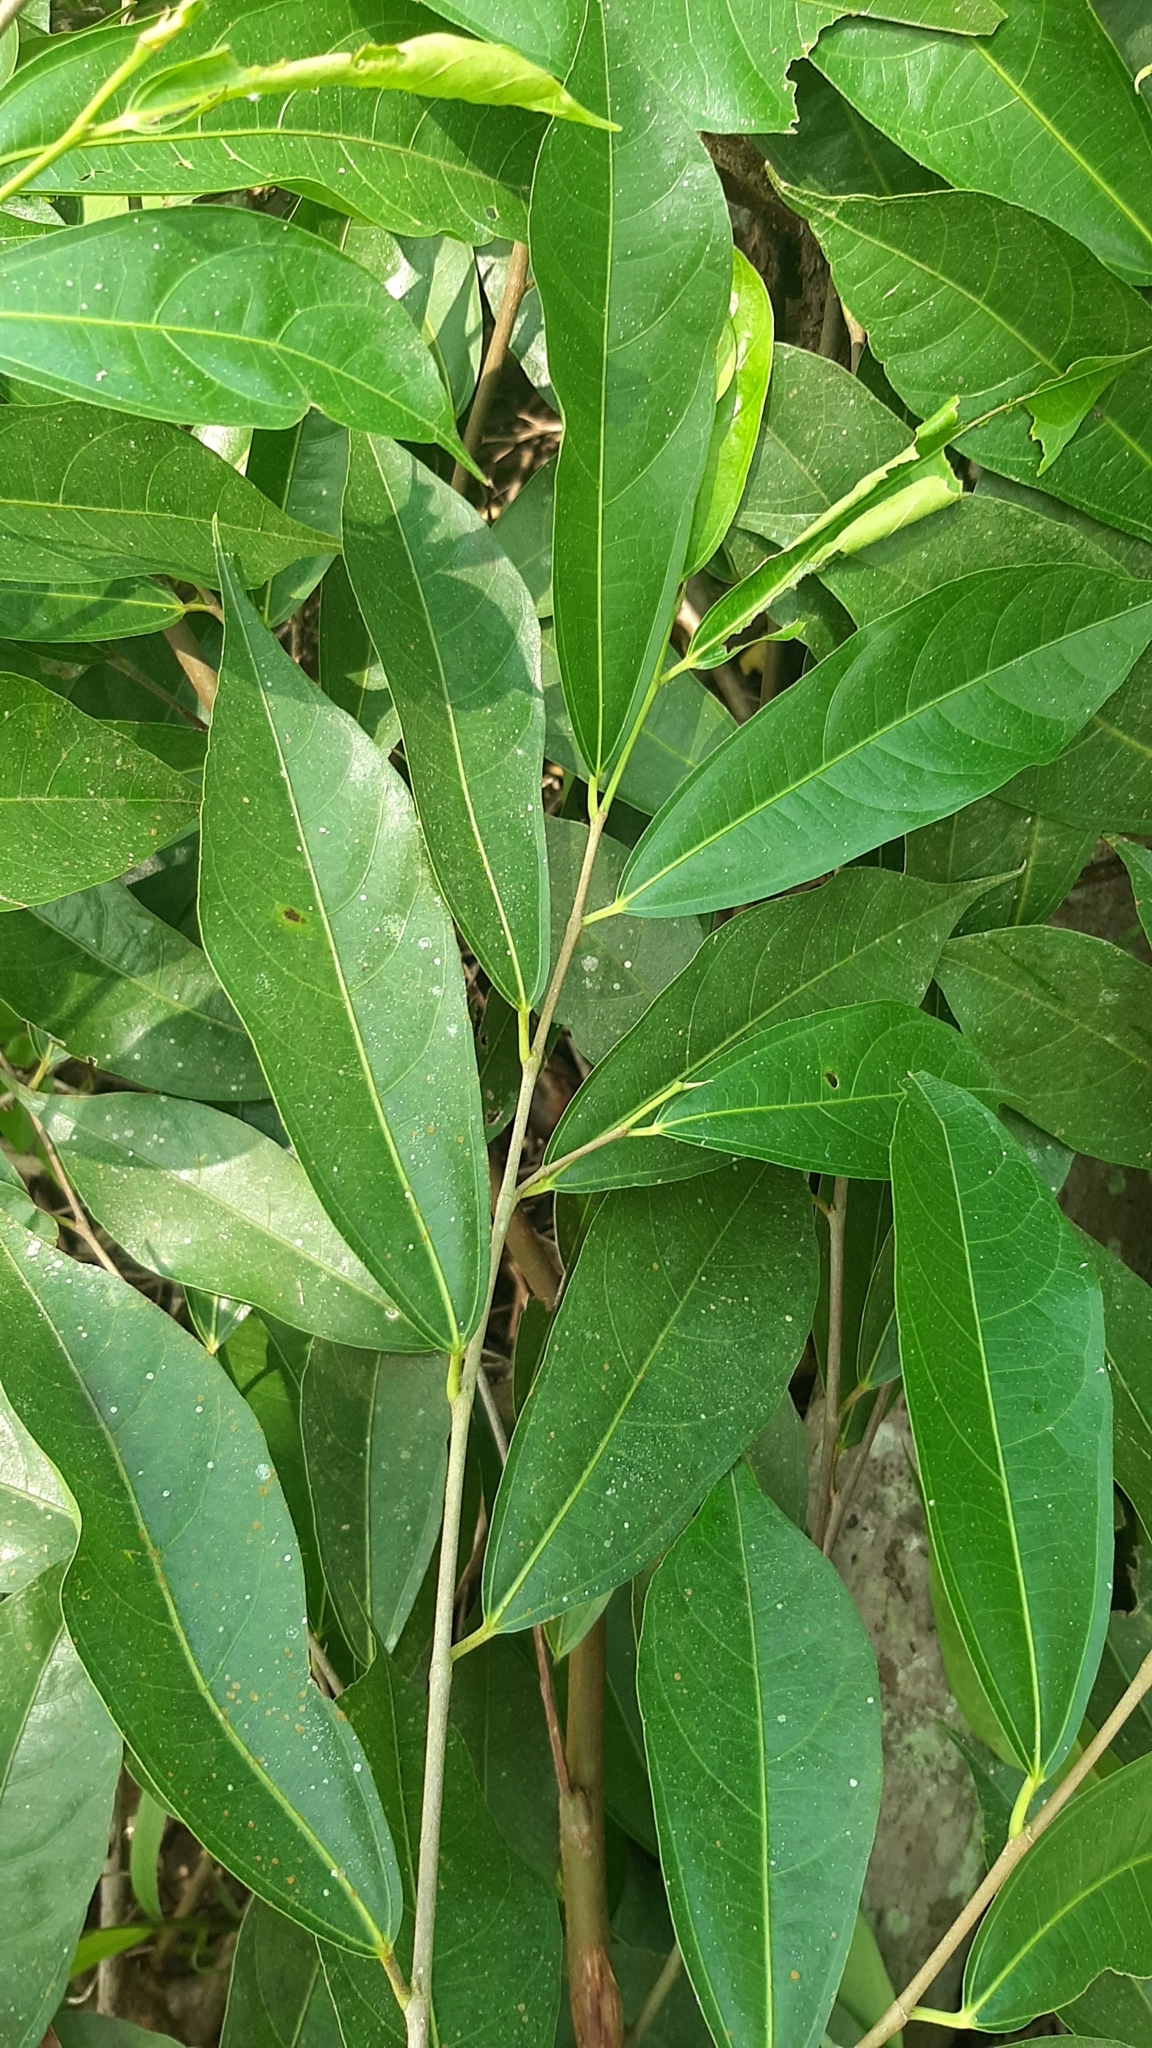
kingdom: Plantae
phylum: Tracheophyta
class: Magnoliopsida
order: Rosales
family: Moraceae
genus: Ficus
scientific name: Ficus ampelos
